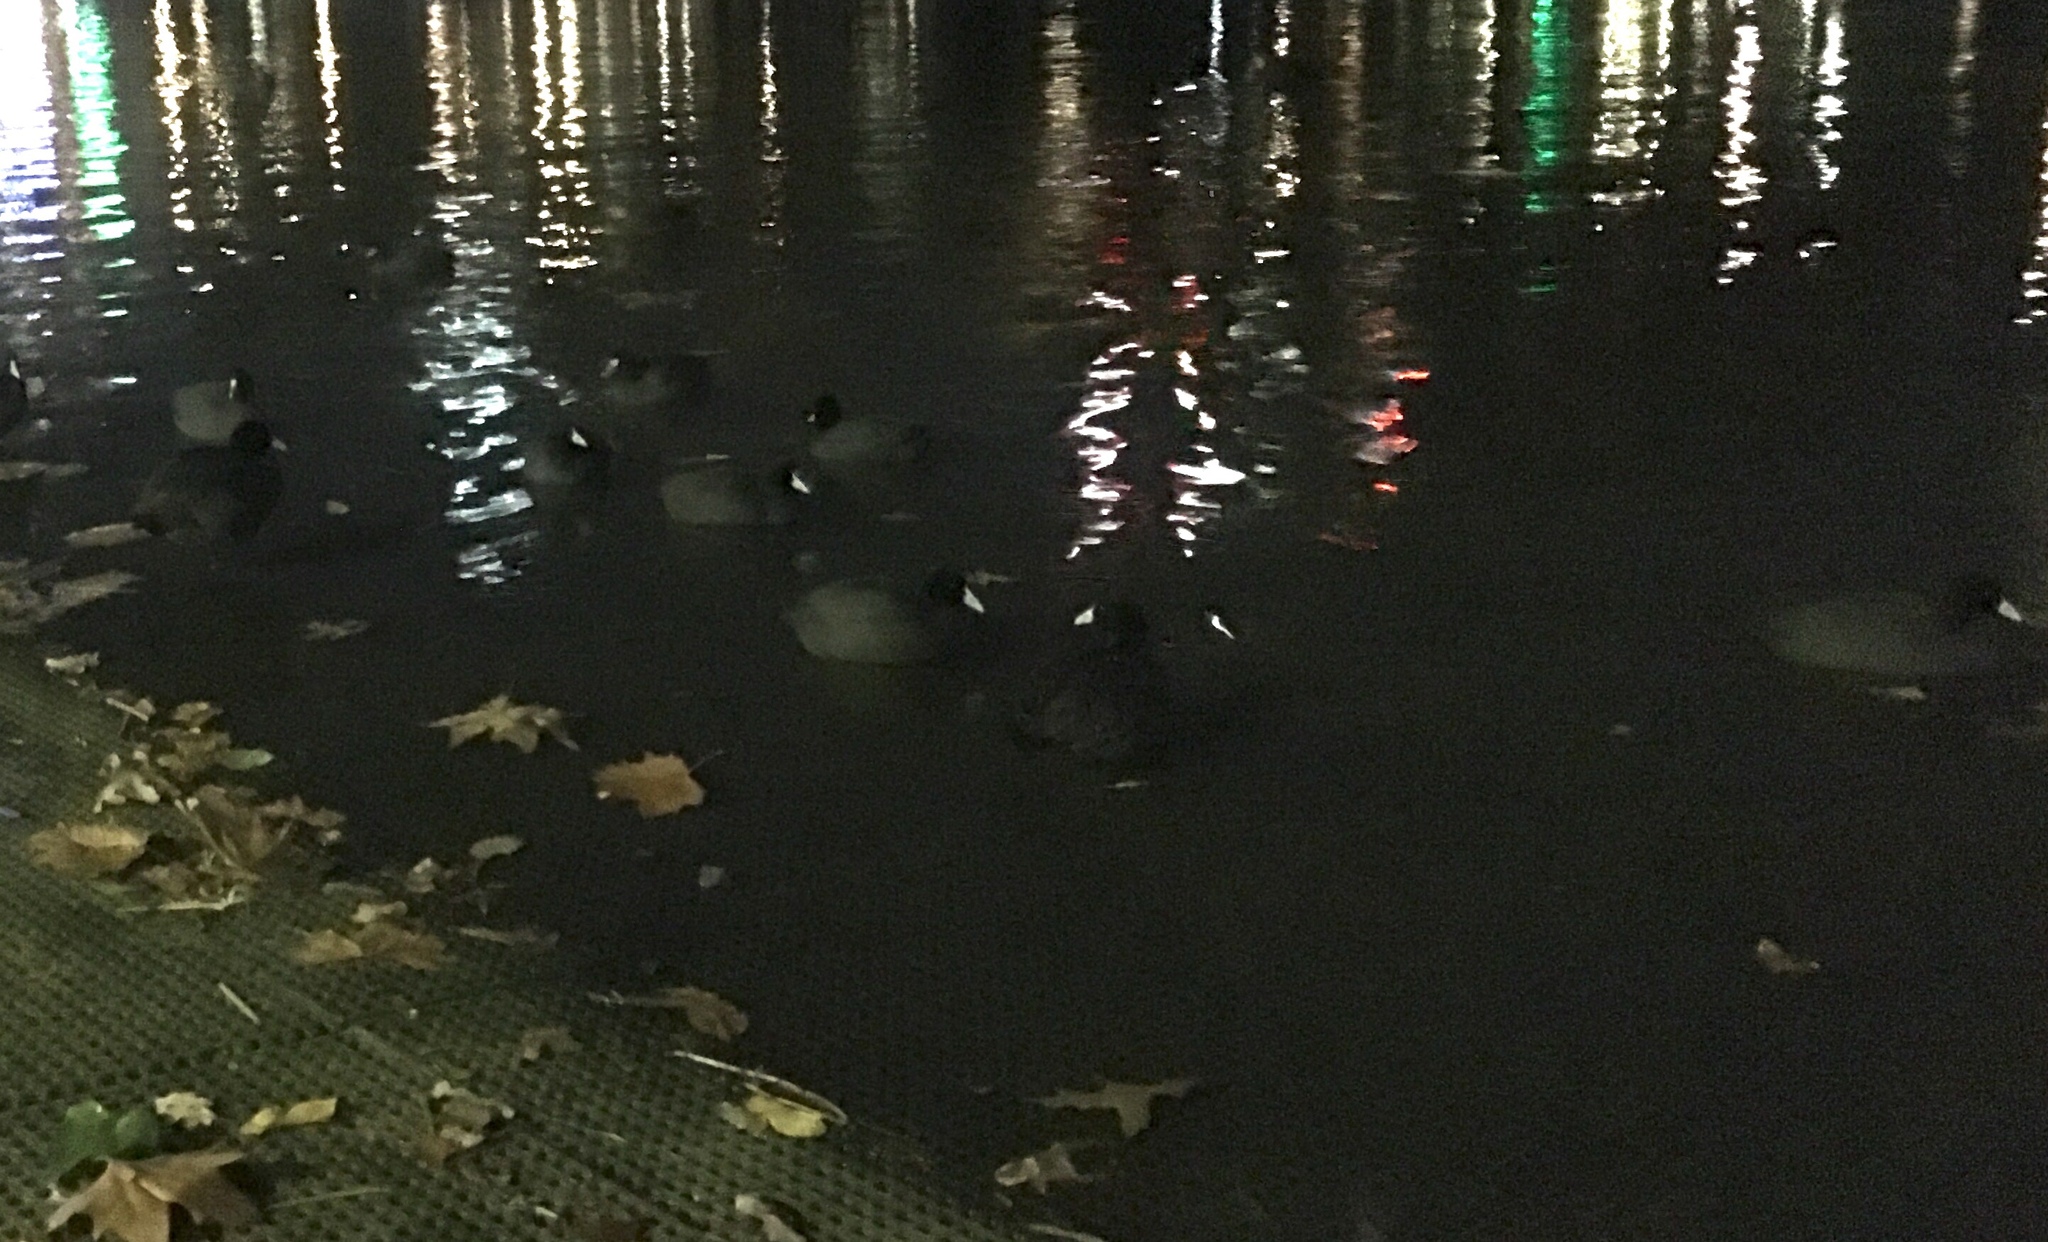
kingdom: Animalia
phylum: Chordata
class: Aves
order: Gruiformes
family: Rallidae
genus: Fulica
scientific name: Fulica atra
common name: Eurasian coot
